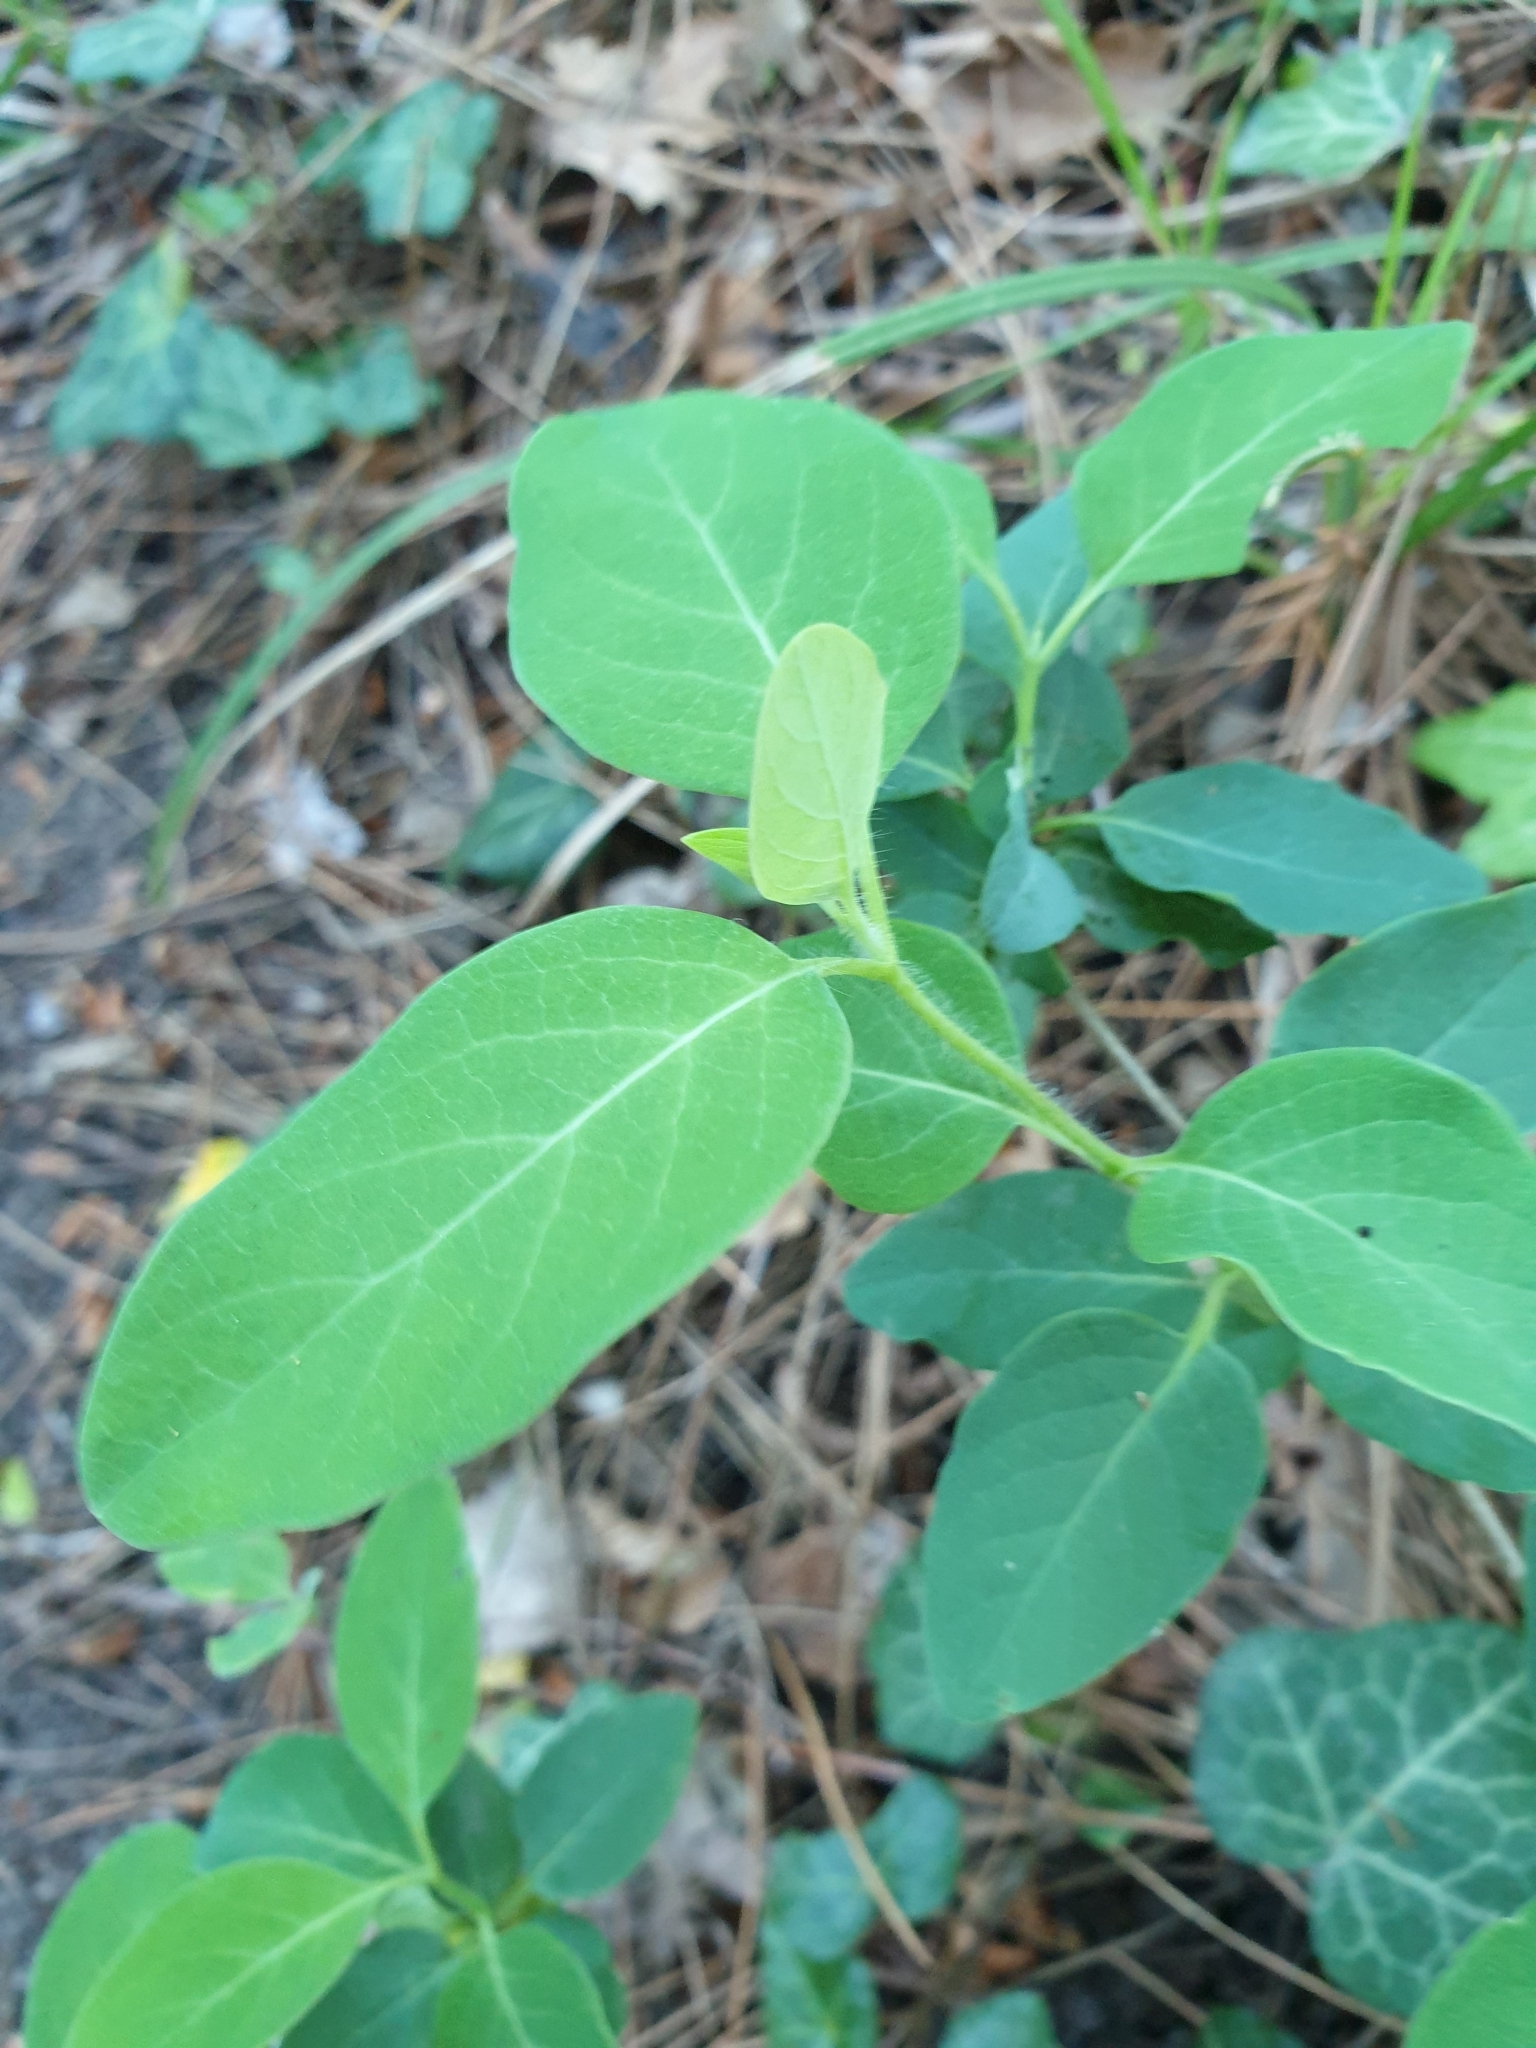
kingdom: Plantae
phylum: Tracheophyta
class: Magnoliopsida
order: Sapindales
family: Anacardiaceae
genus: Cotinus
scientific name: Cotinus coggygria
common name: Smoke-tree
